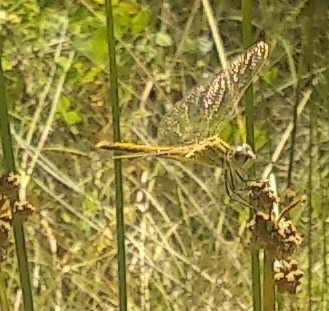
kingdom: Animalia
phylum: Arthropoda
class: Insecta
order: Odonata
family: Libellulidae
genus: Sympetrum
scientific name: Sympetrum fonscolombii
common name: Red-veined darter
